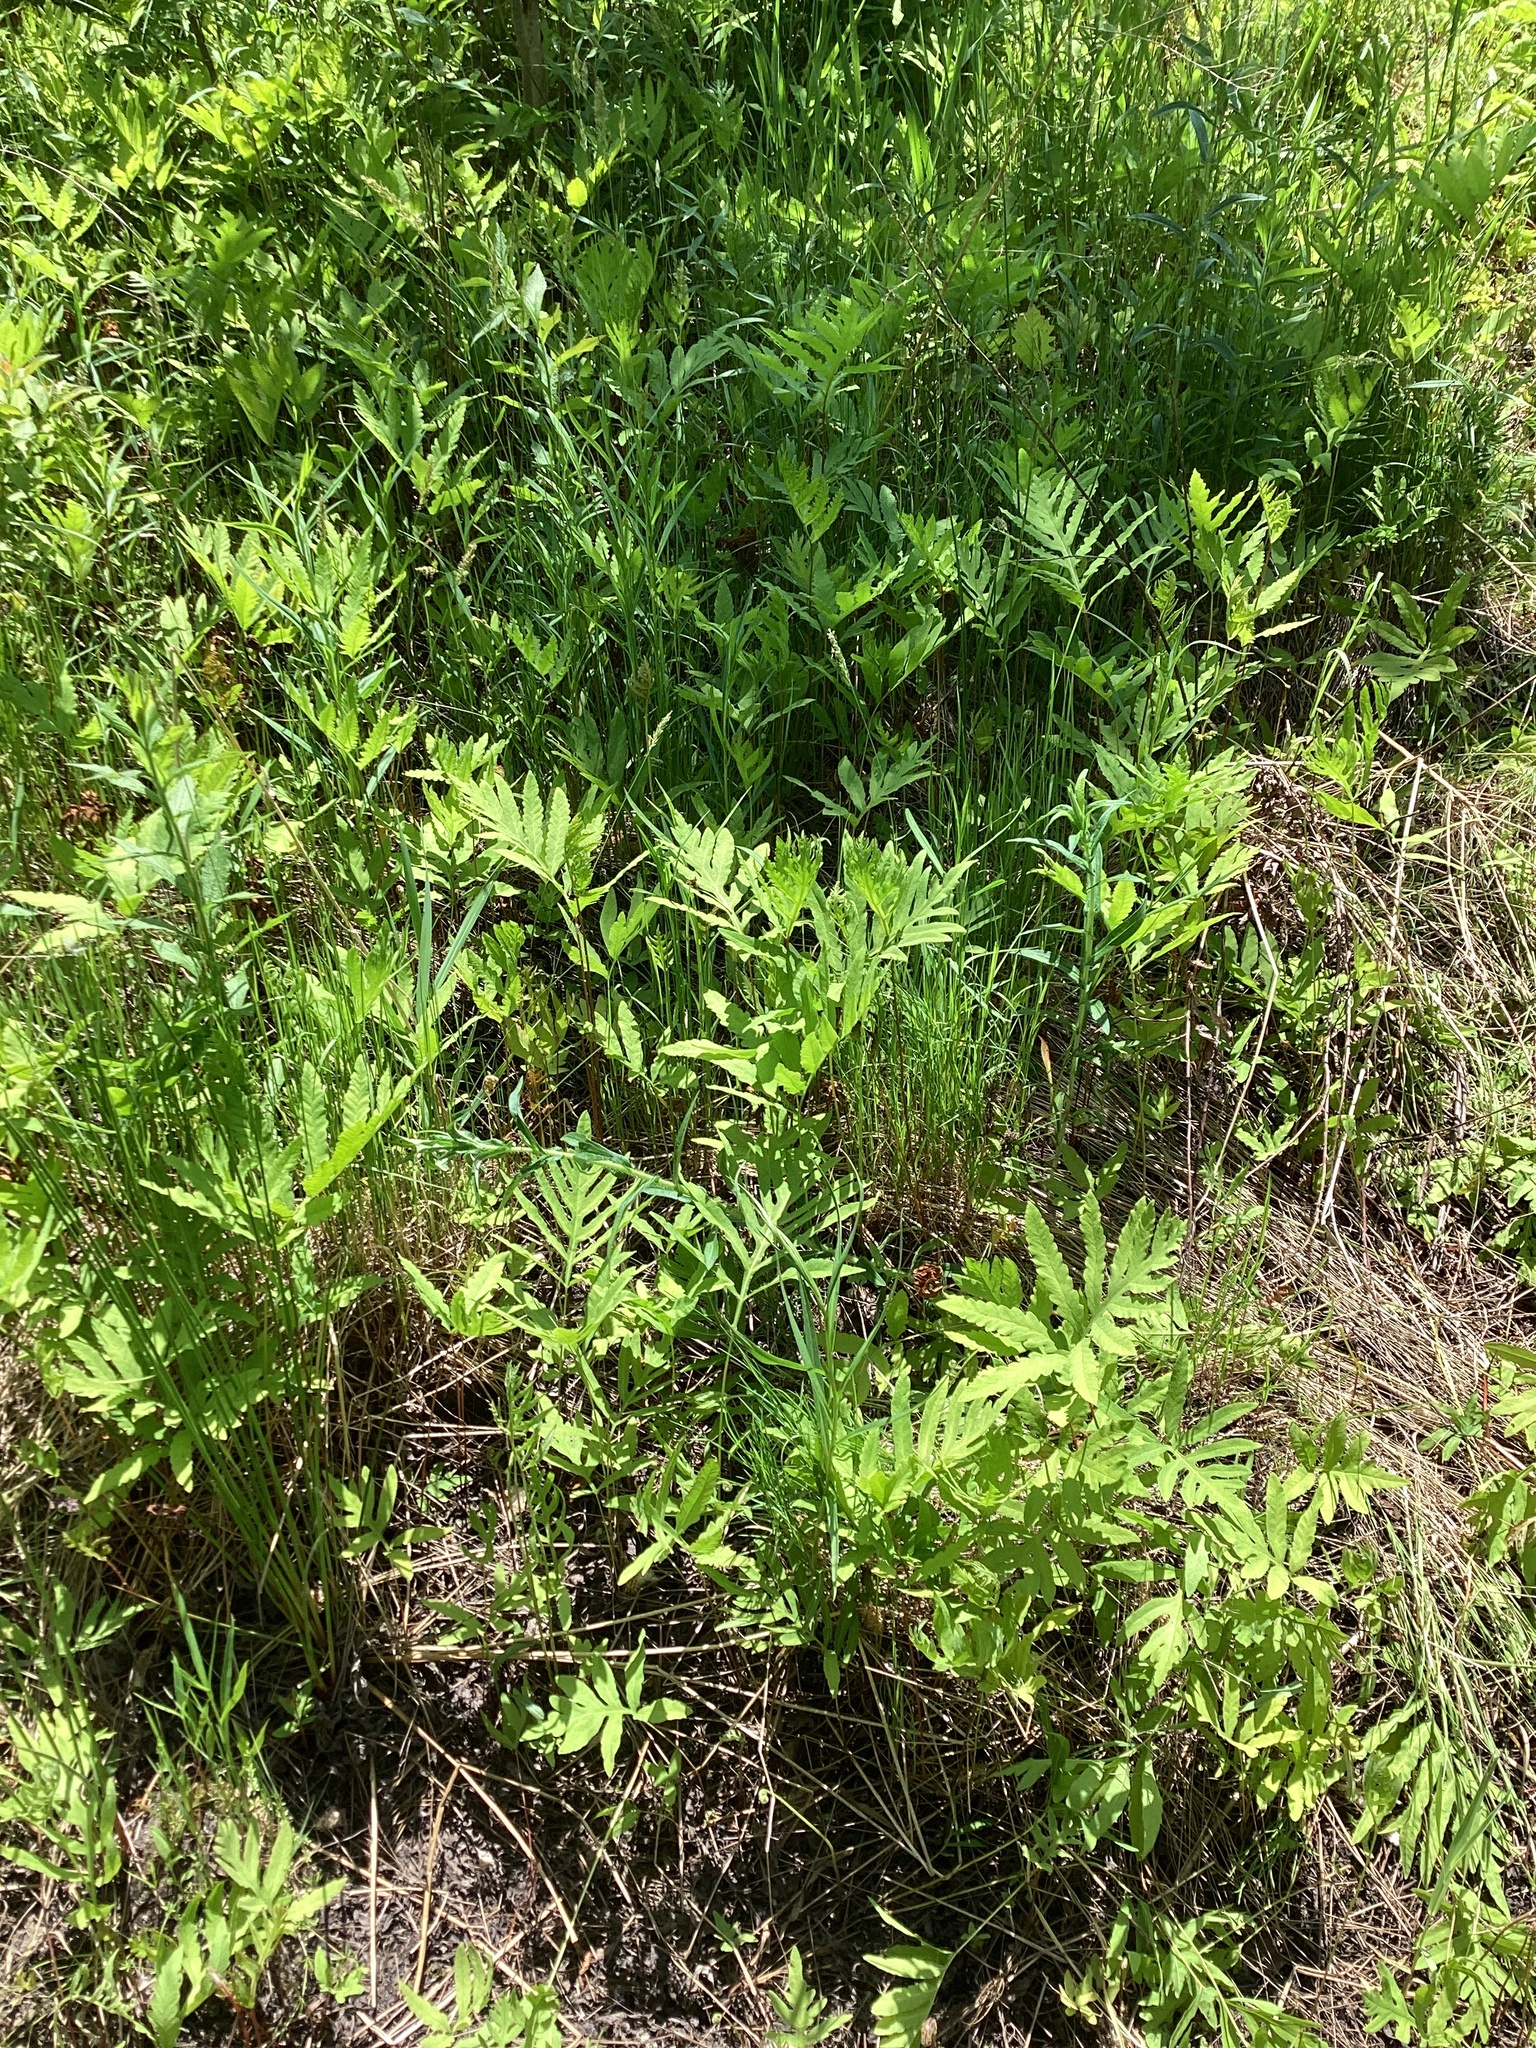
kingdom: Plantae
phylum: Tracheophyta
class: Polypodiopsida
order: Polypodiales
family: Onocleaceae
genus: Onoclea
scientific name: Onoclea sensibilis
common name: Sensitive fern
